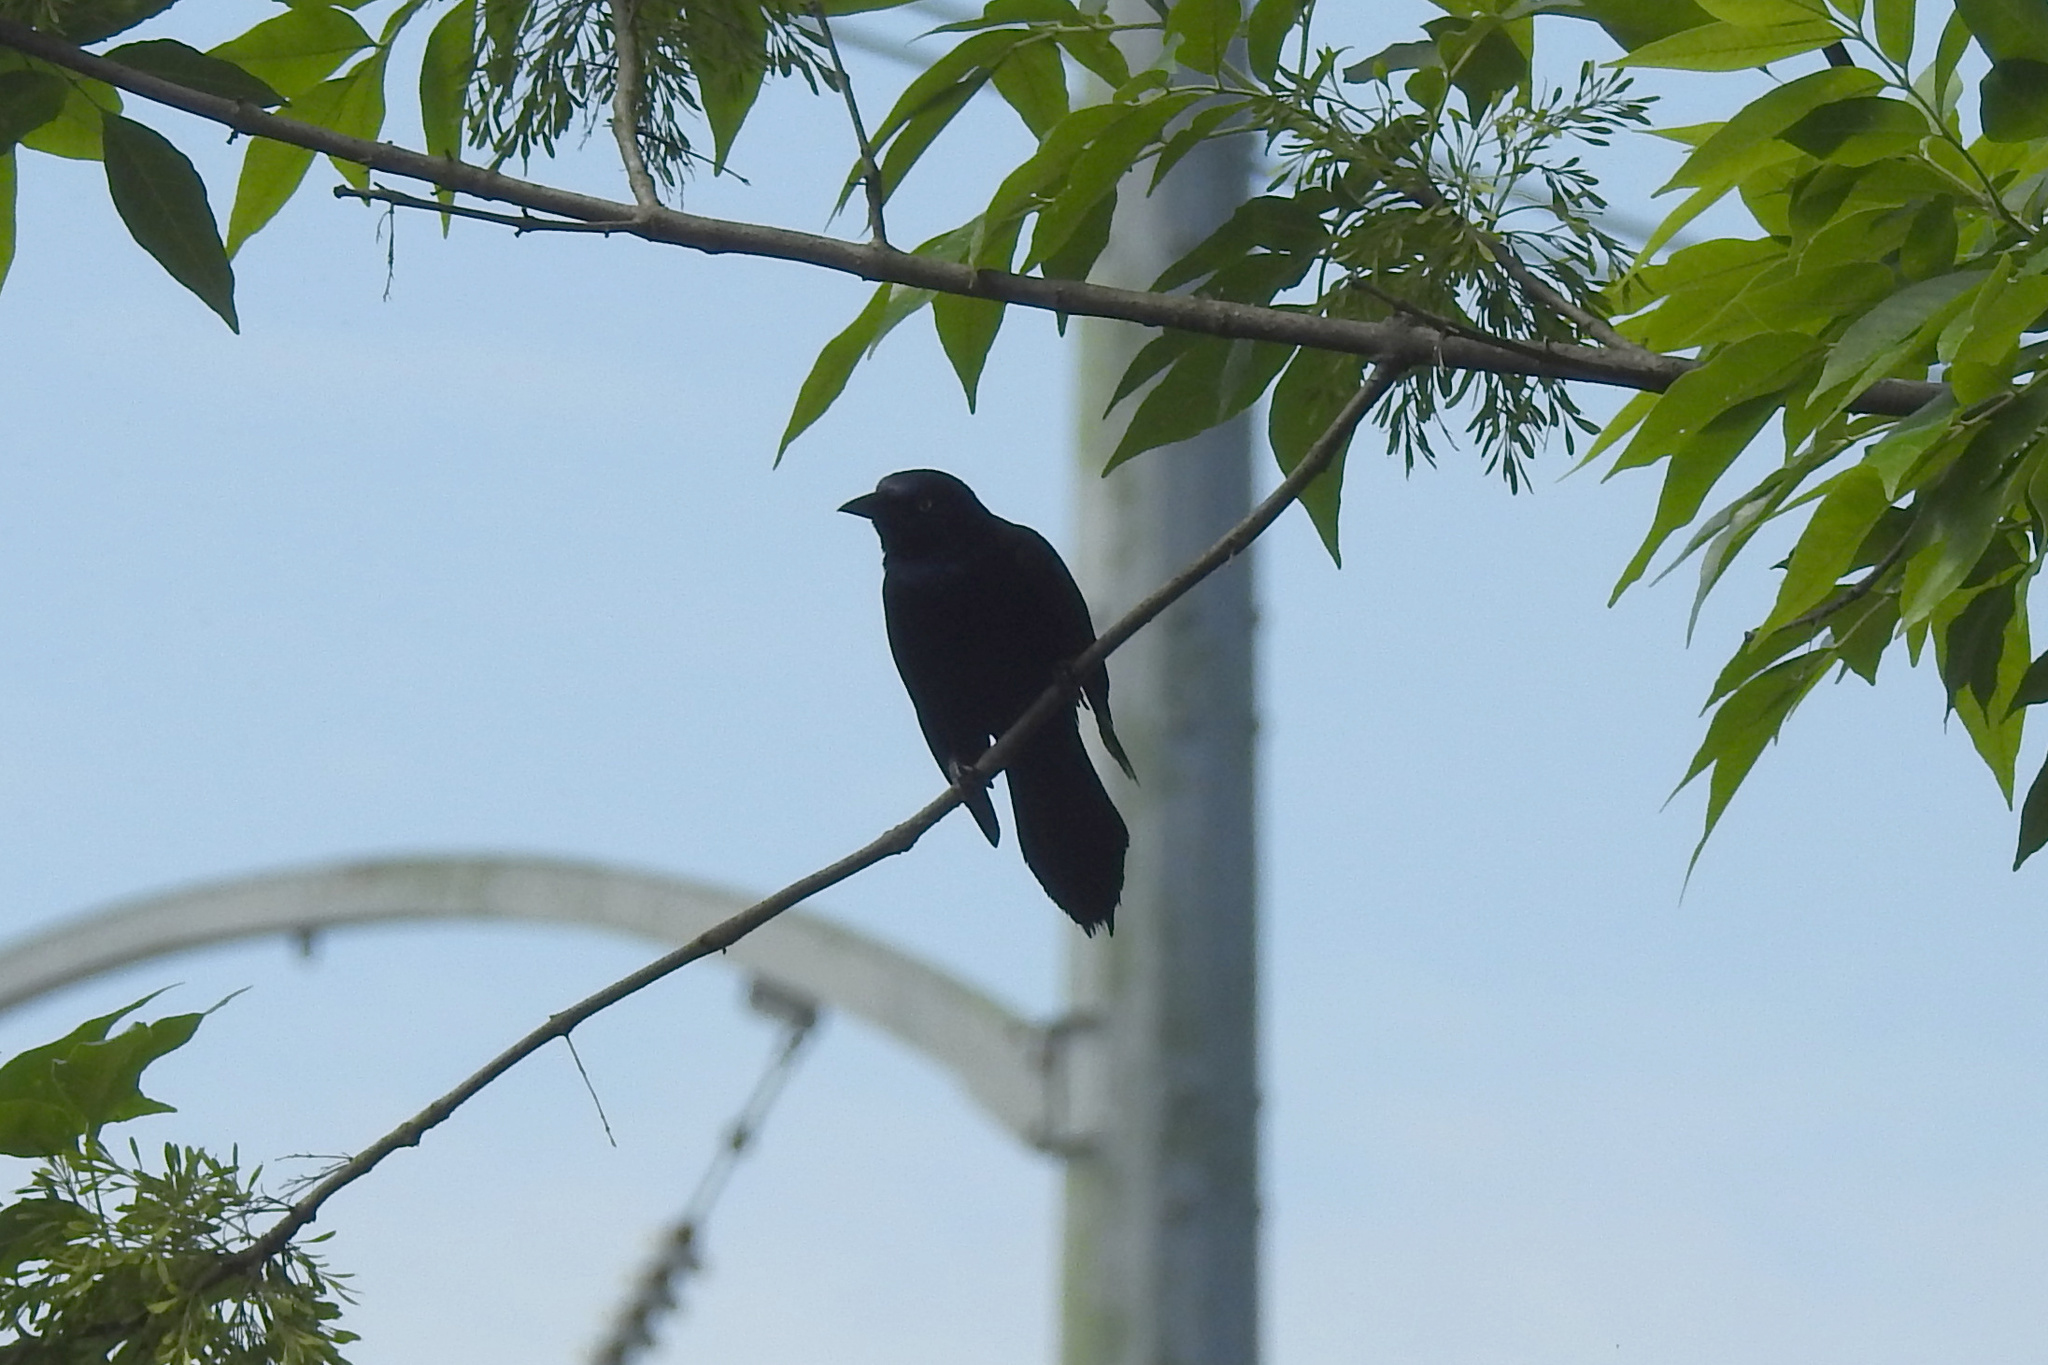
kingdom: Animalia
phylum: Chordata
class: Aves
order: Passeriformes
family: Icteridae
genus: Quiscalus
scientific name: Quiscalus quiscula
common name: Common grackle
